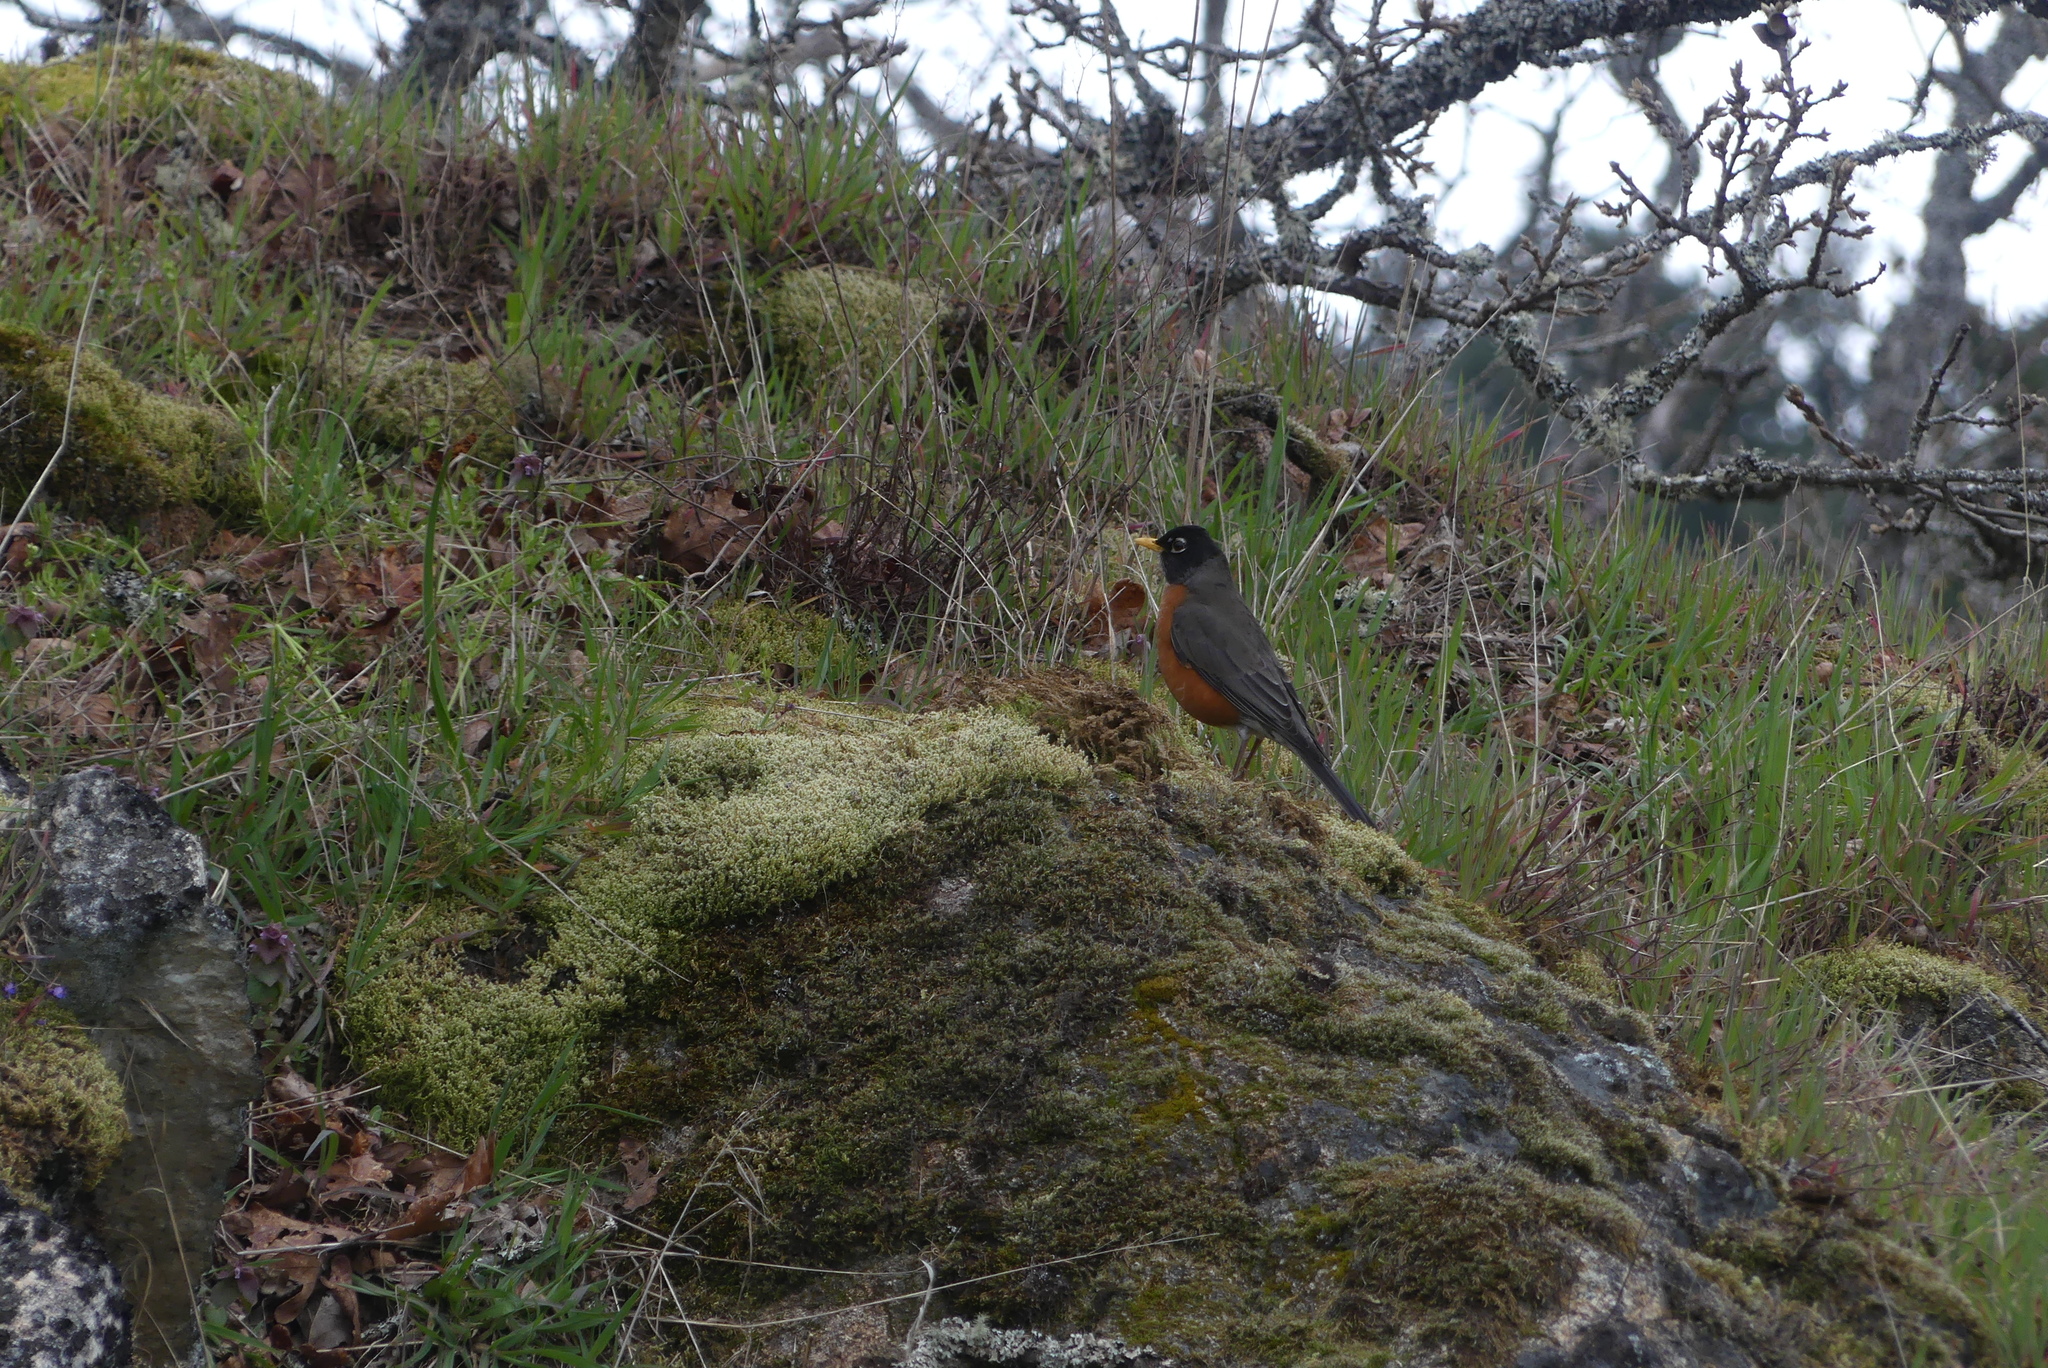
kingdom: Animalia
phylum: Chordata
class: Aves
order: Passeriformes
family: Turdidae
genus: Turdus
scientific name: Turdus migratorius
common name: American robin
